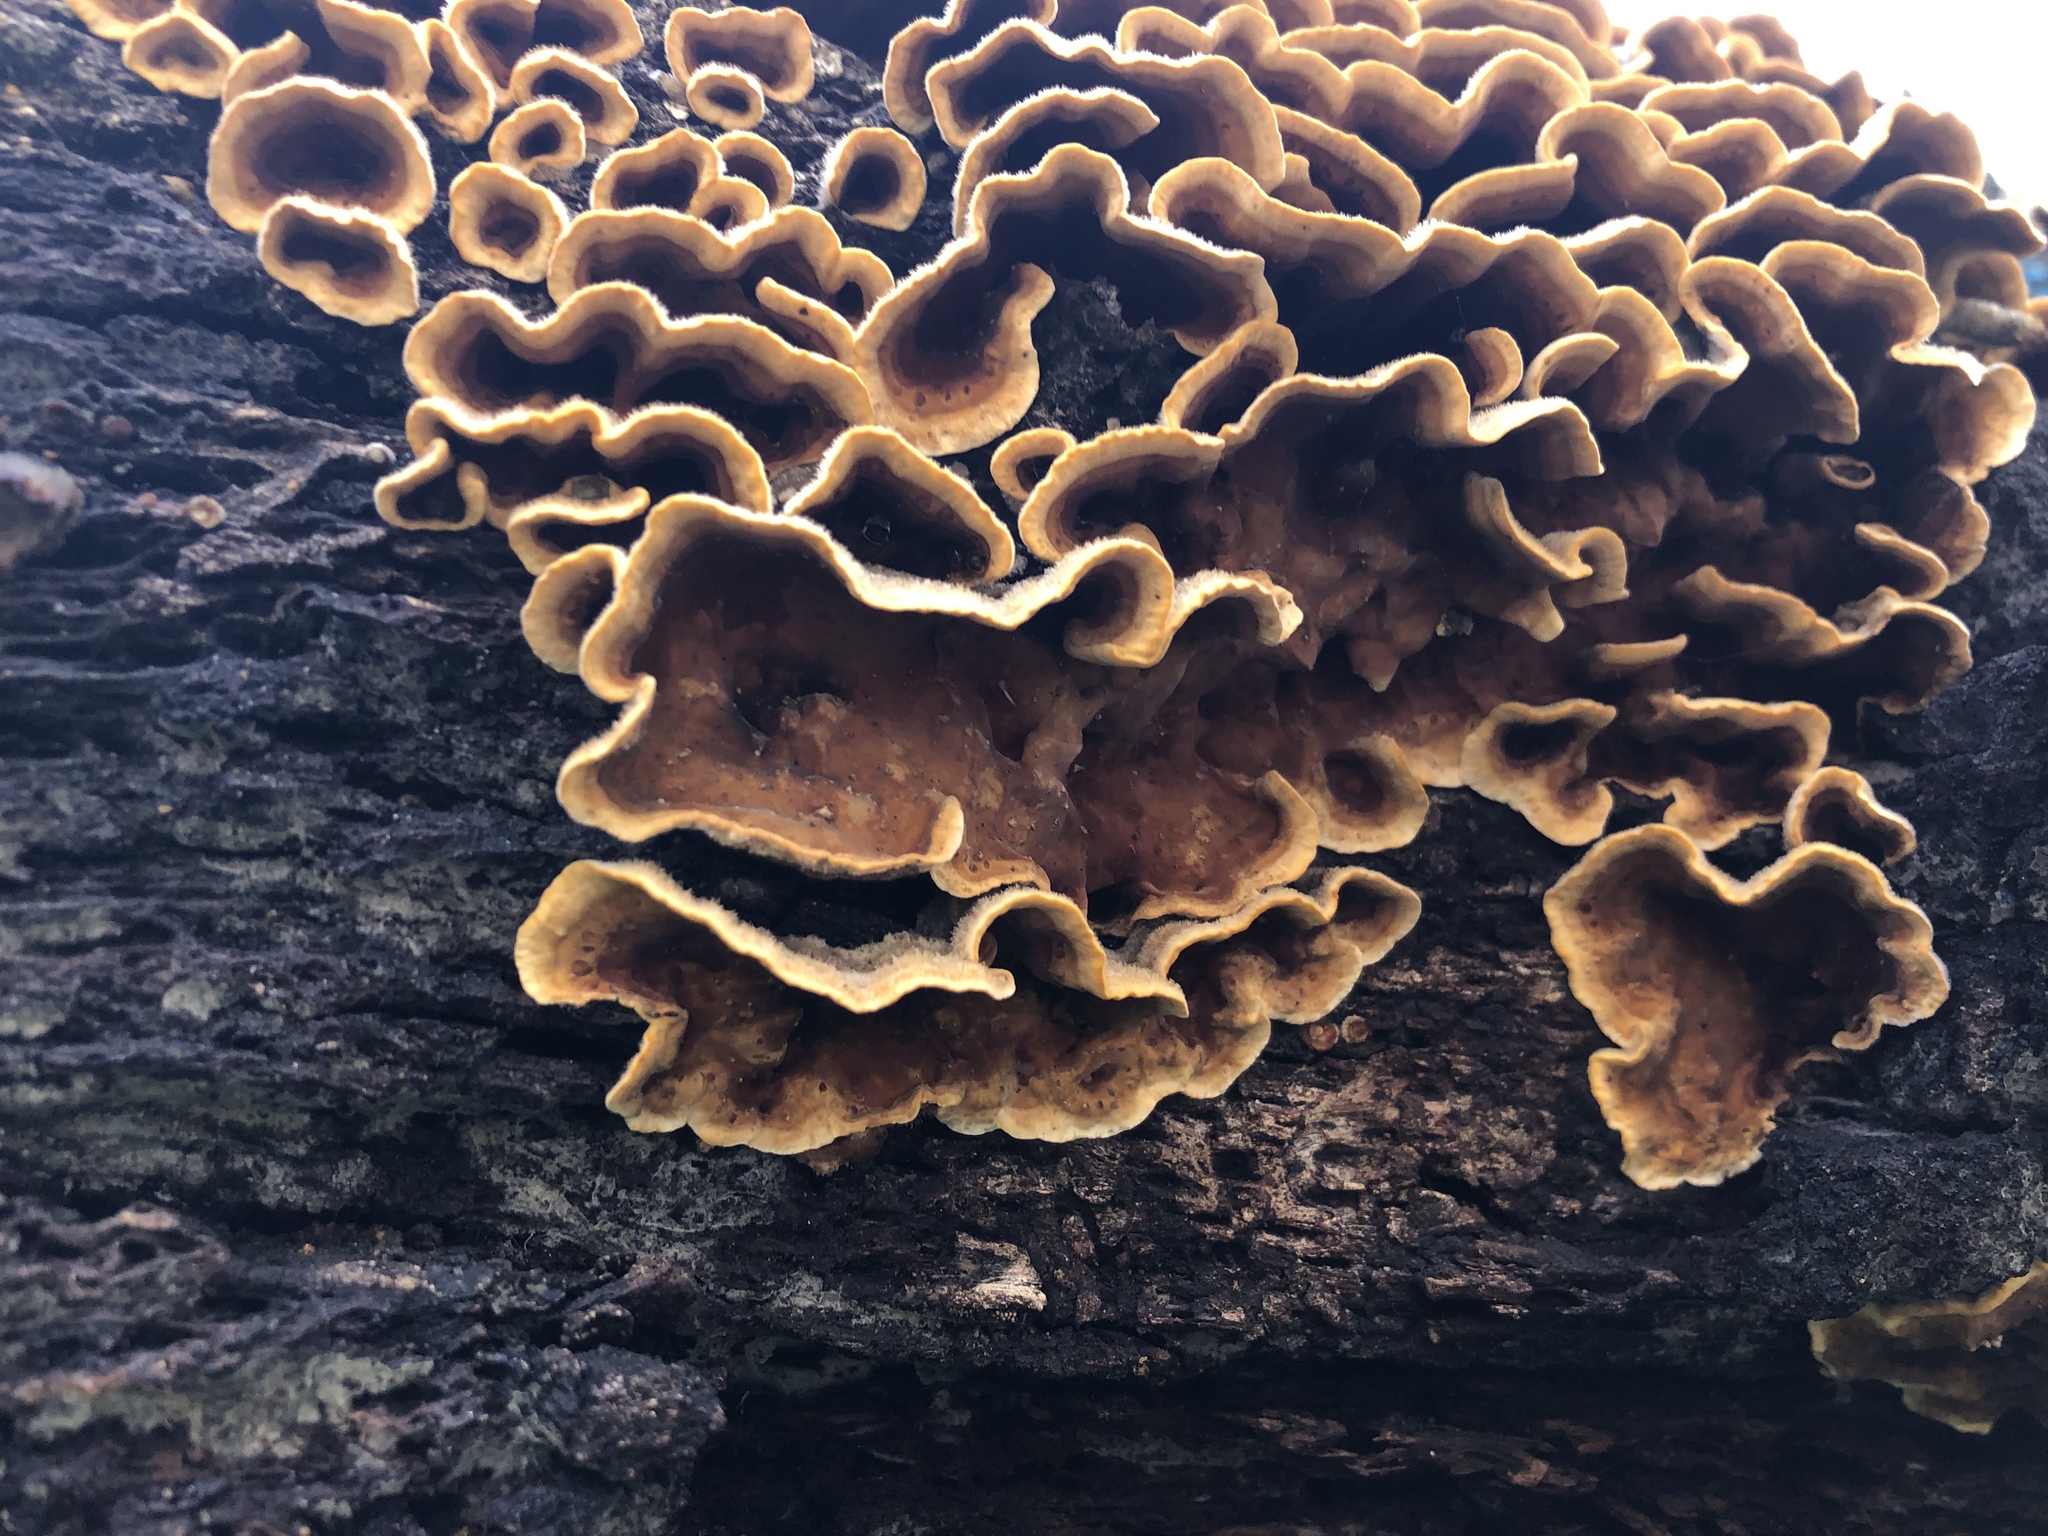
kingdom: Fungi
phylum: Basidiomycota
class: Agaricomycetes
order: Russulales
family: Stereaceae
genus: Stereum
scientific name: Stereum hirsutum
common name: Hairy curtain crust
